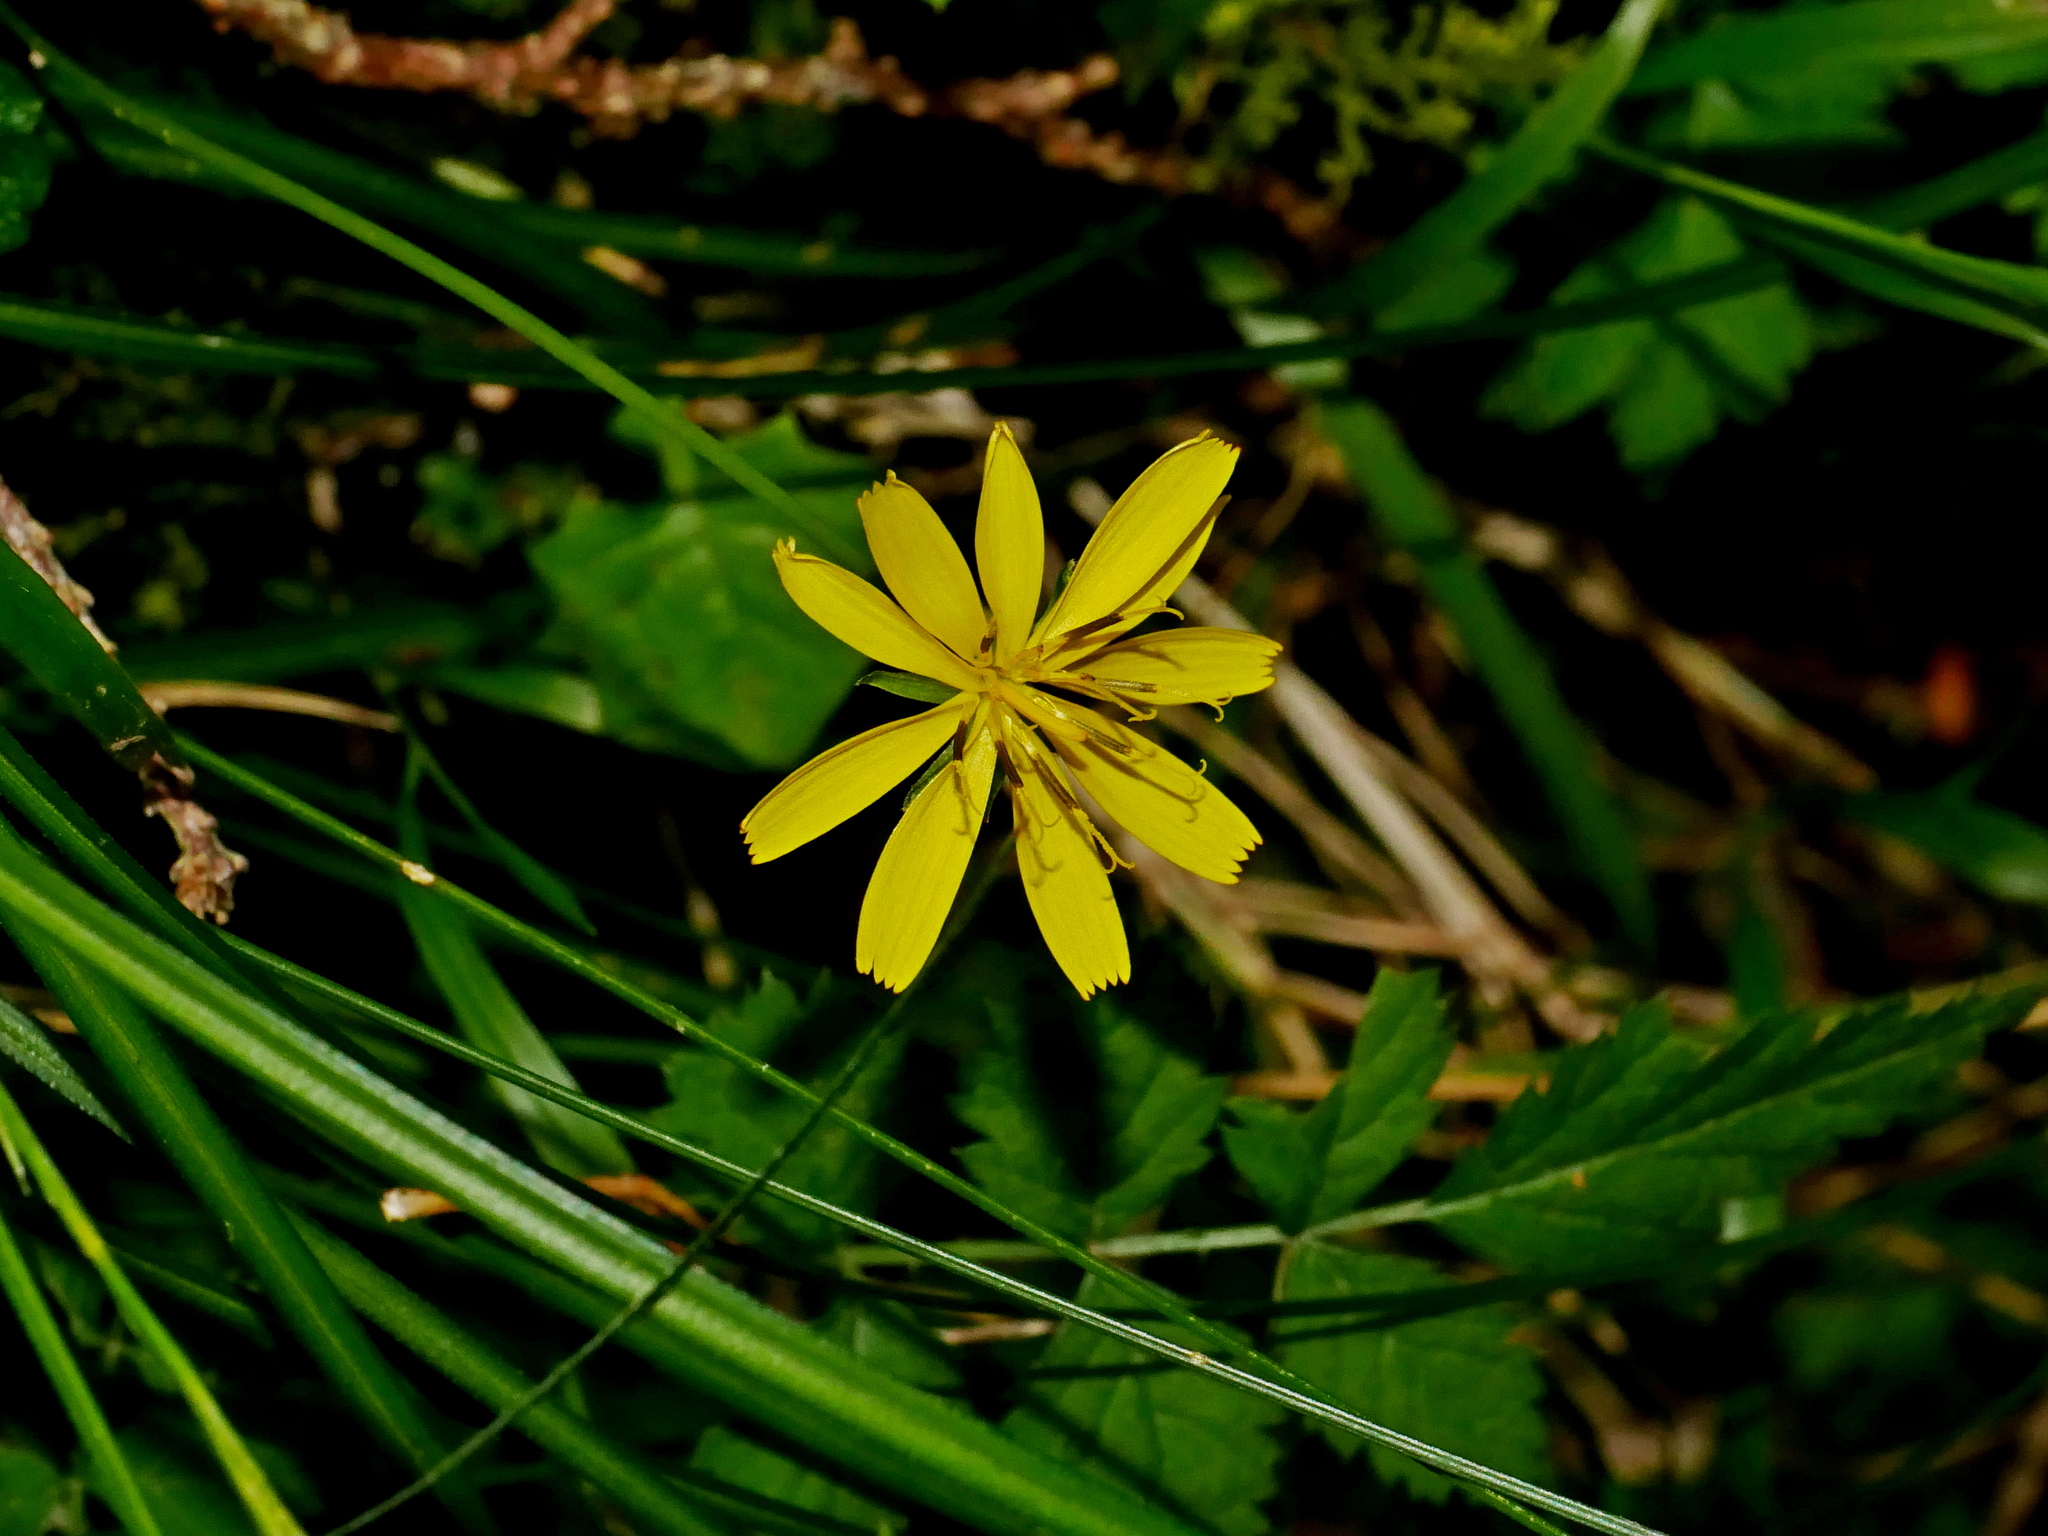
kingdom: Plantae
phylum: Tracheophyta
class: Magnoliopsida
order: Asterales
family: Asteraceae
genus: Lapsanastrum
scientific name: Lapsanastrum takasei
